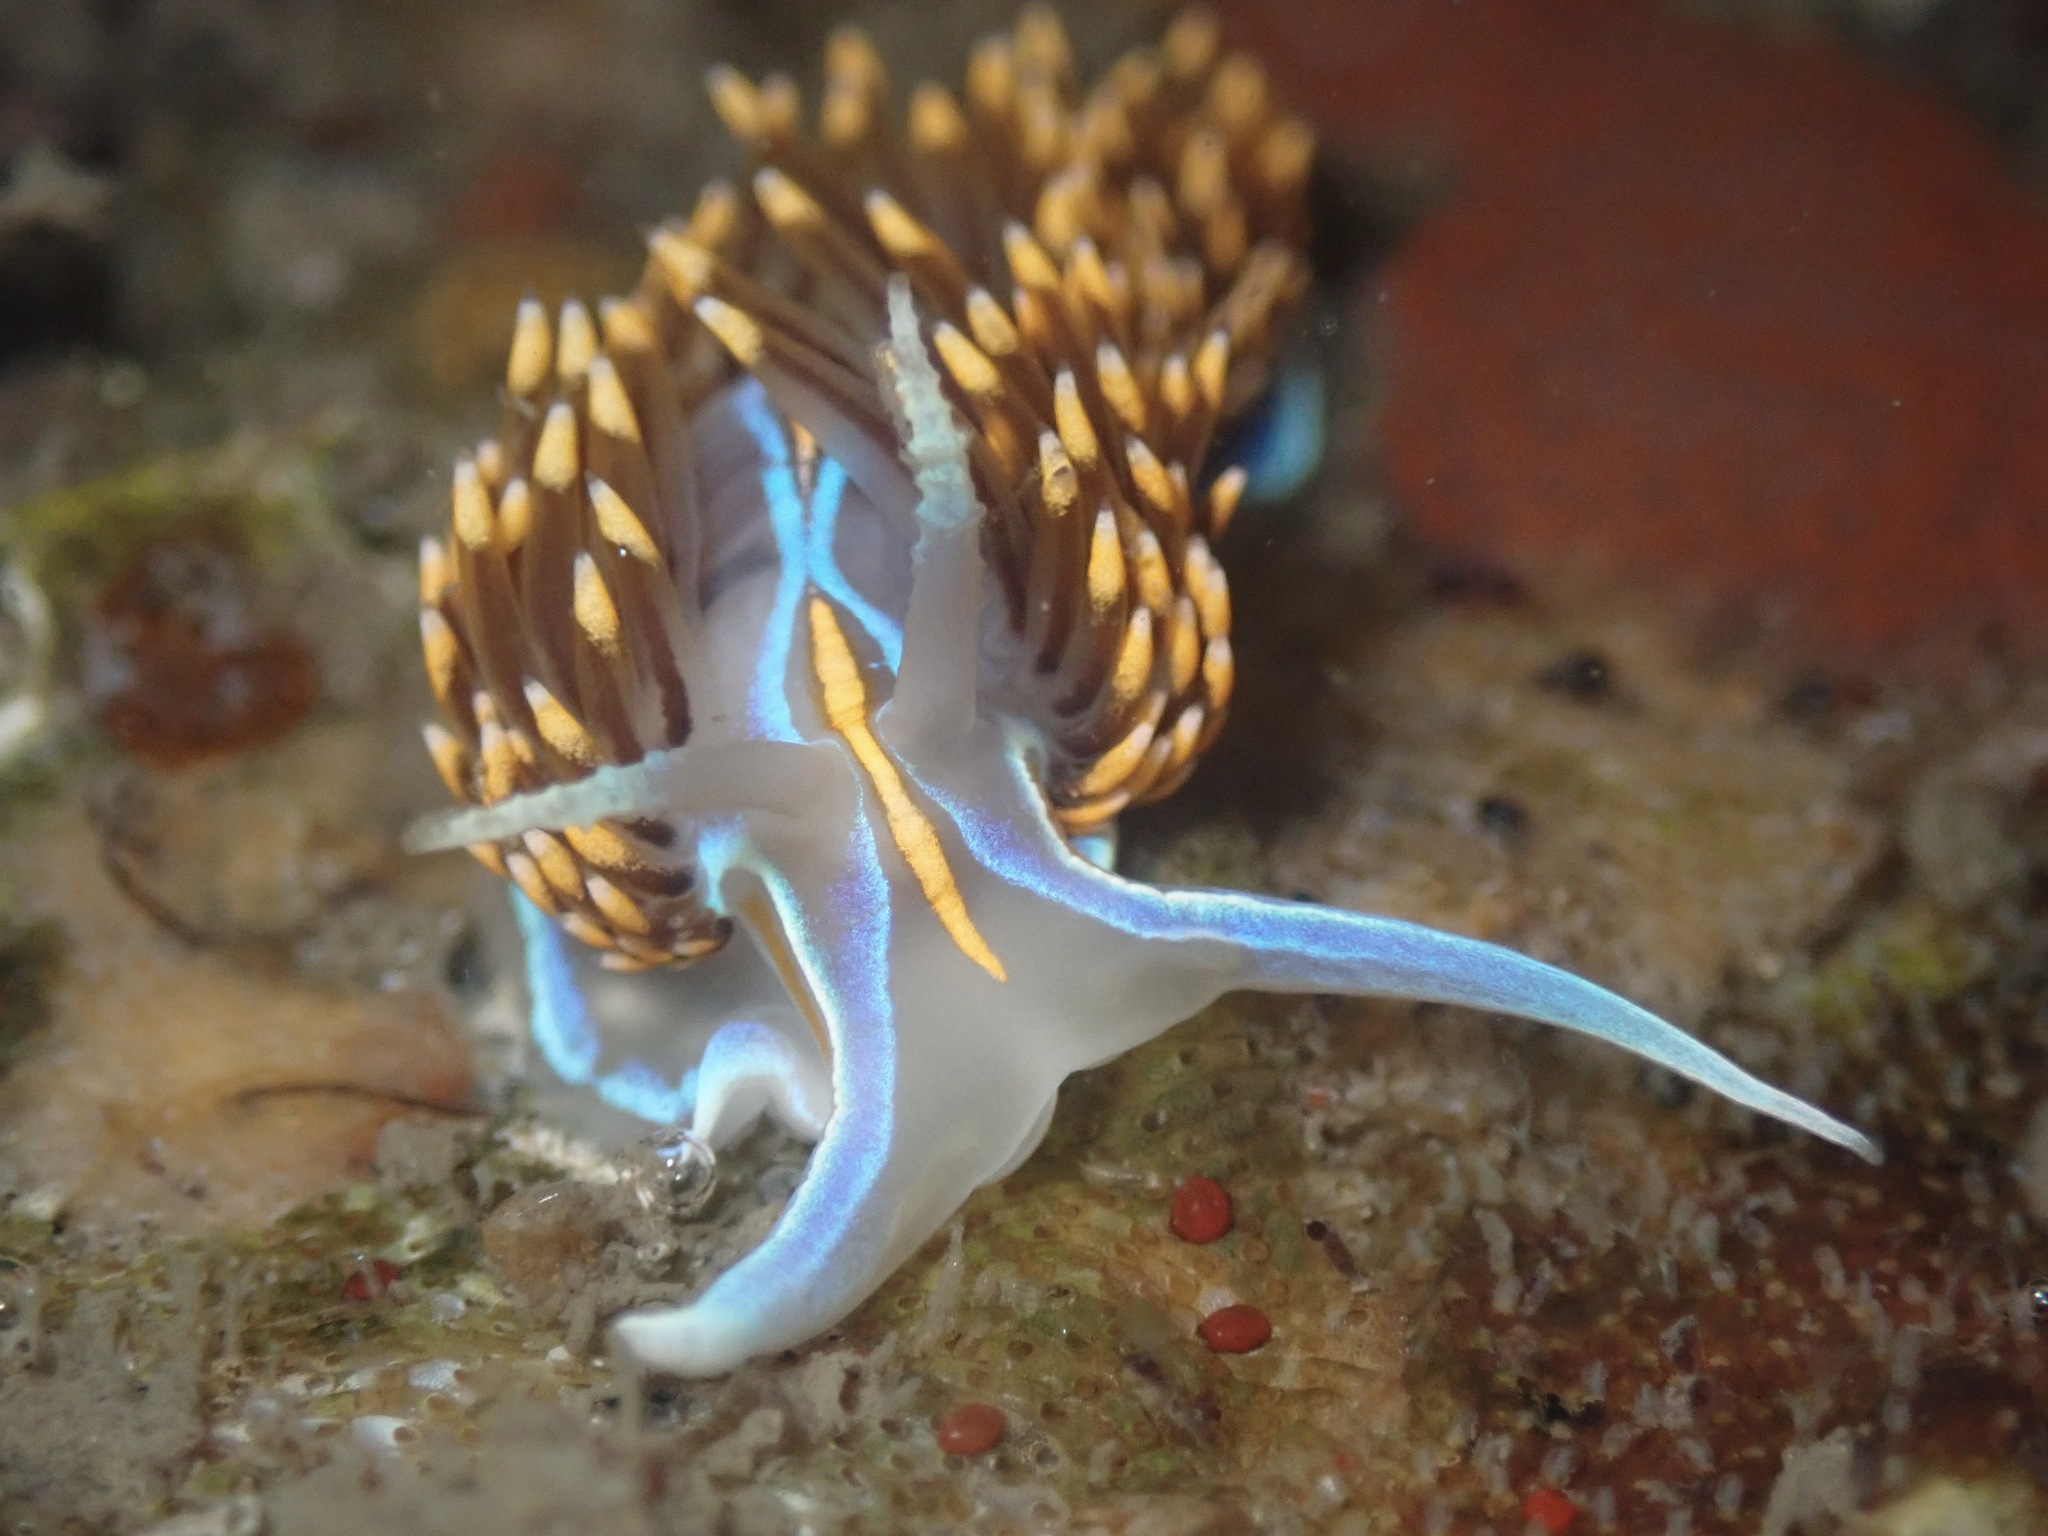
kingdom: Animalia
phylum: Mollusca
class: Gastropoda
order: Nudibranchia
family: Myrrhinidae
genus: Hermissenda
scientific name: Hermissenda opalescens
